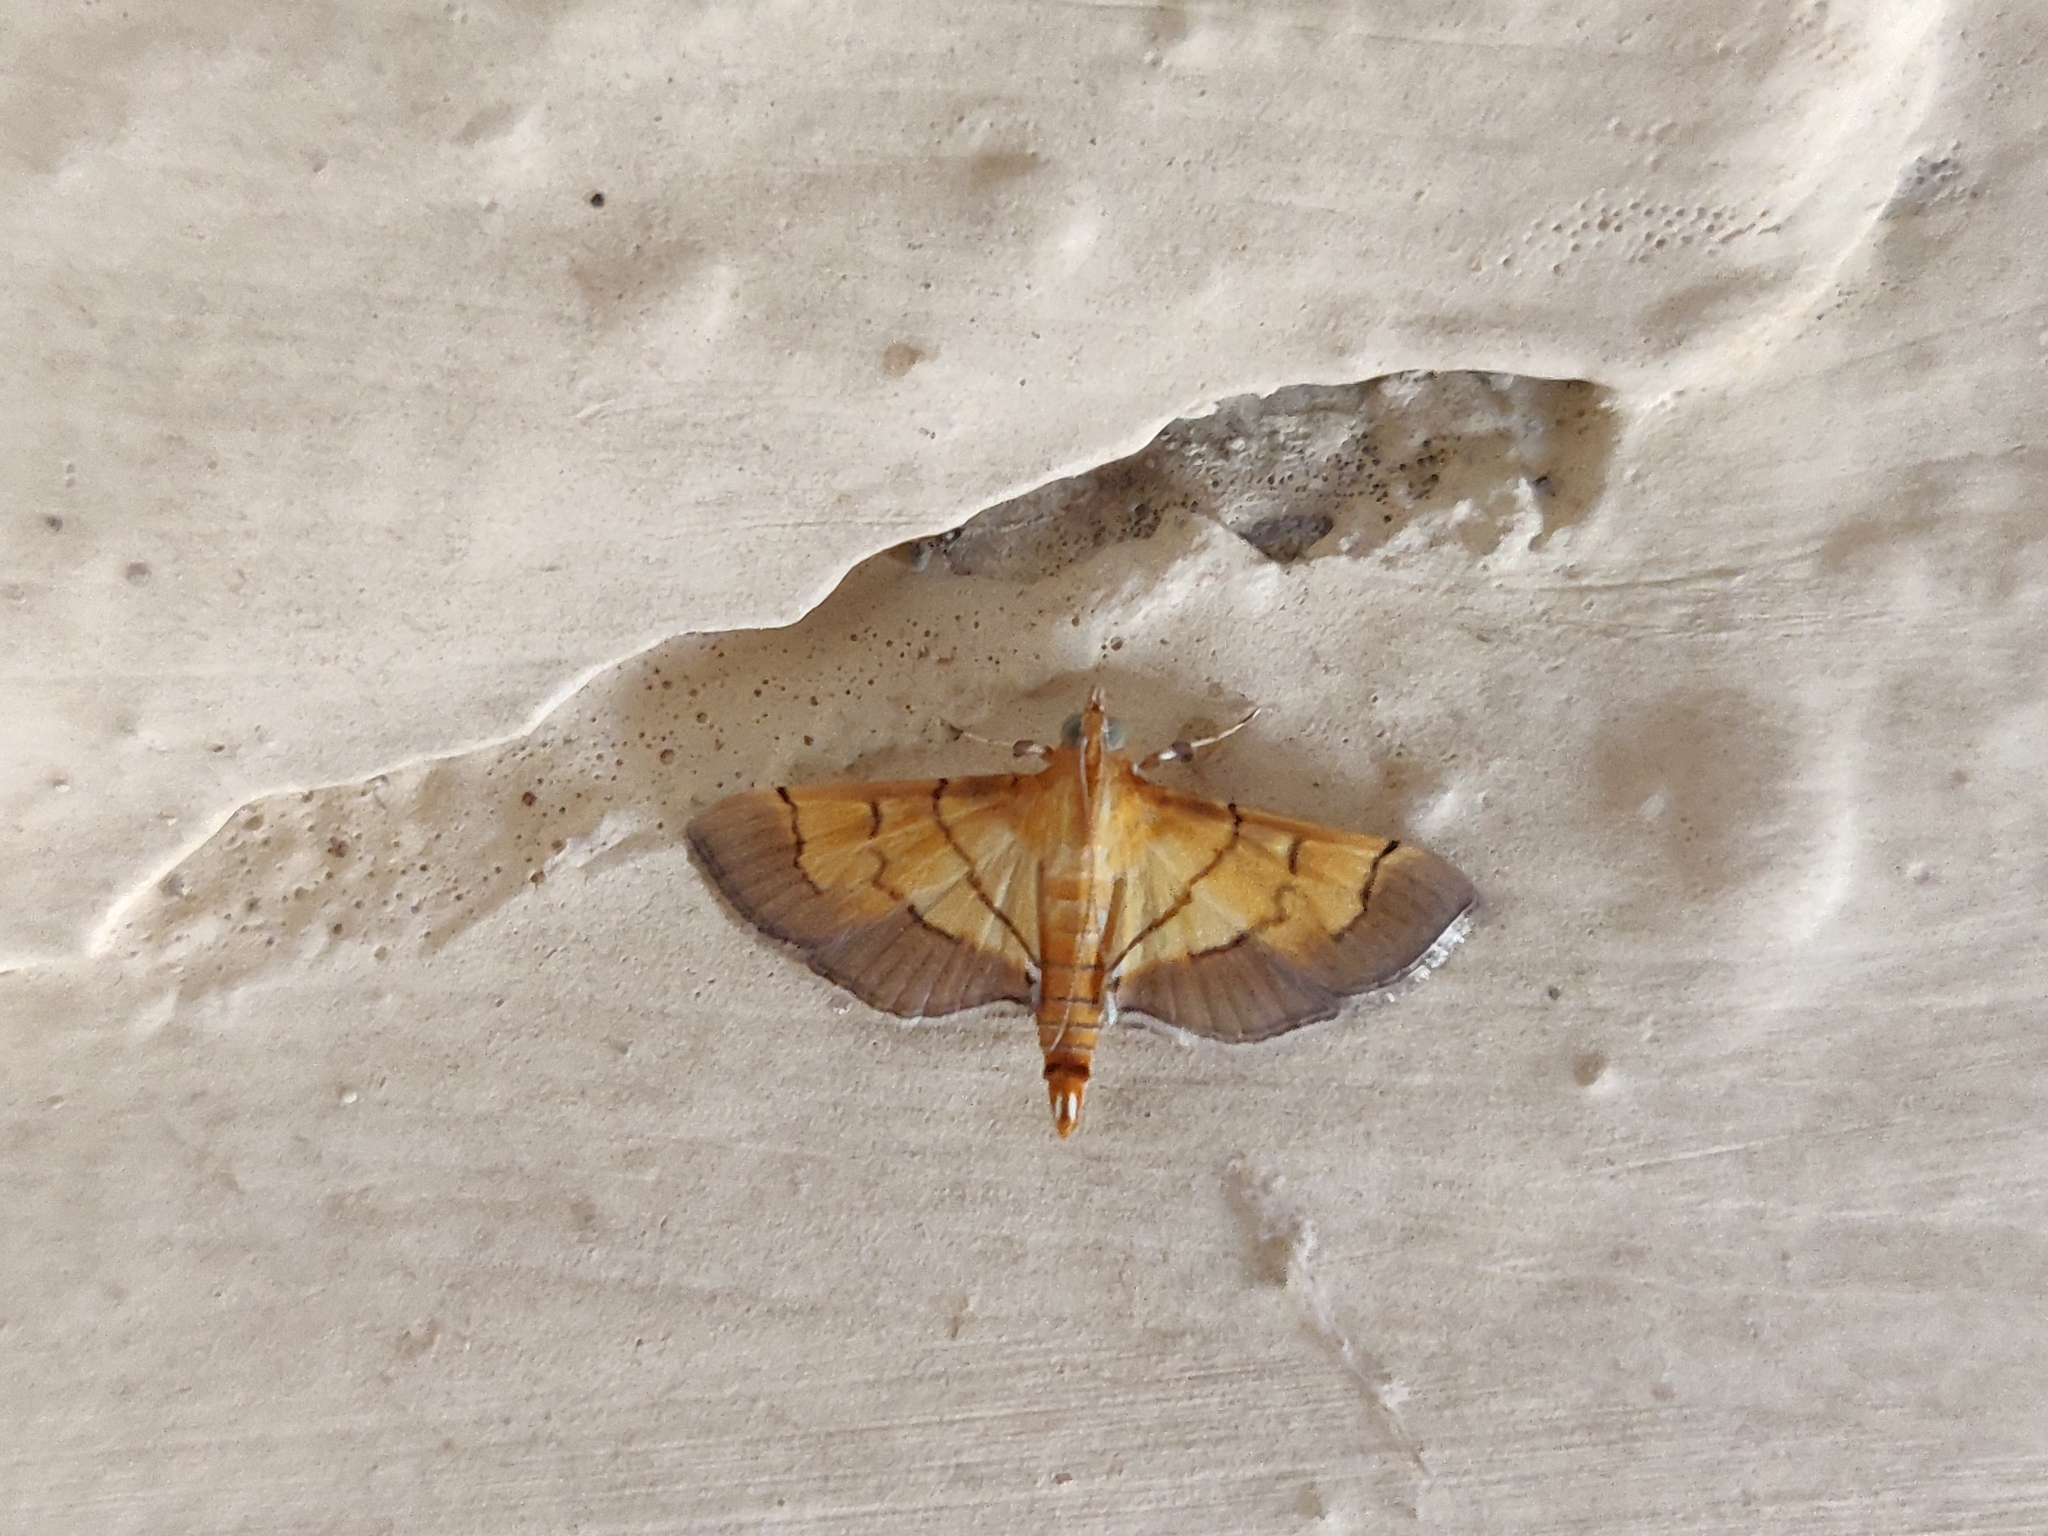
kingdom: Animalia
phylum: Arthropoda
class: Insecta
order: Lepidoptera
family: Crambidae
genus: Syngamia
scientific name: Syngamia latimarginalis
